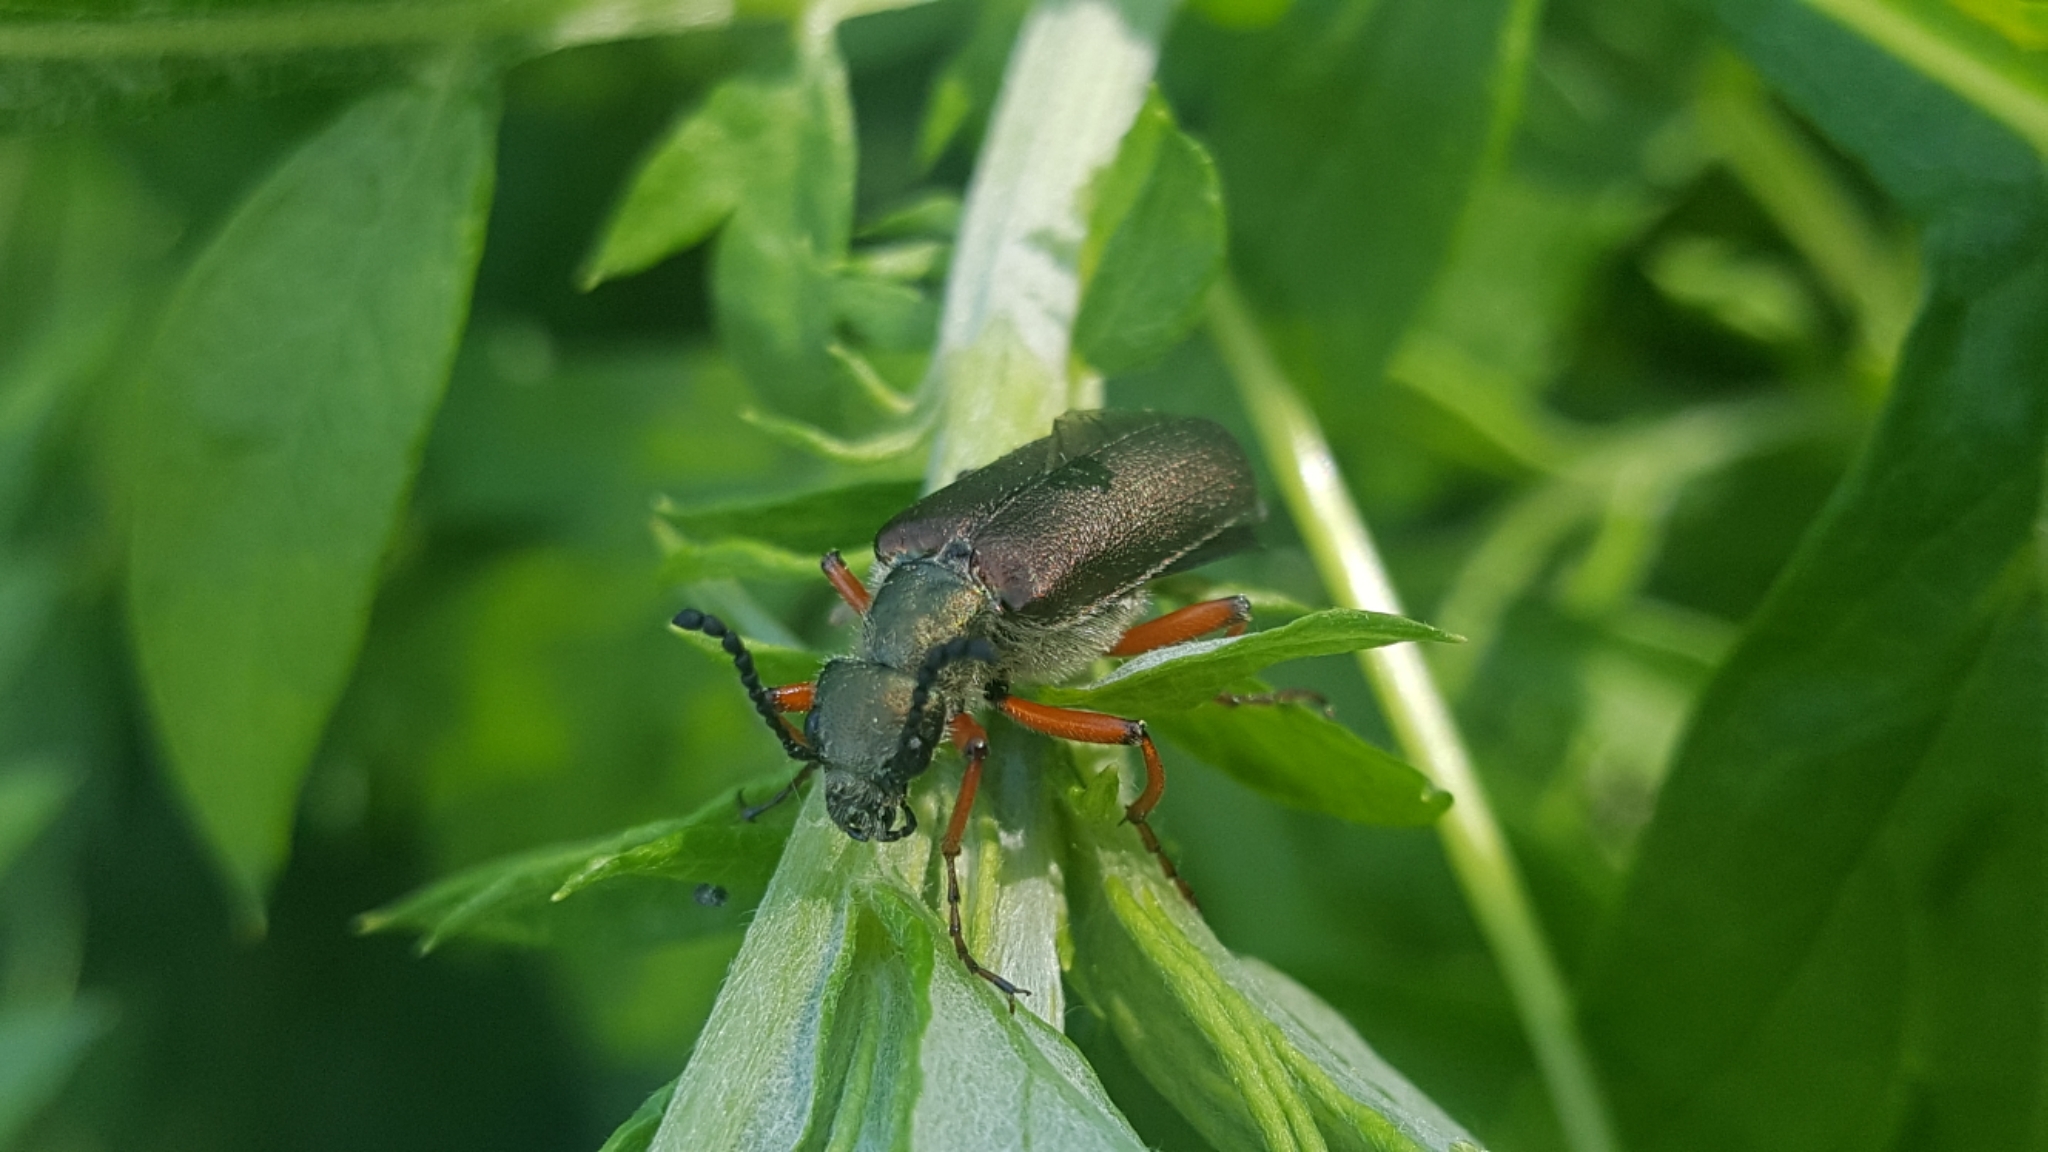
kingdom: Animalia
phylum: Arthropoda
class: Insecta
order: Coleoptera
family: Meloidae
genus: Lytta
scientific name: Lytta aenea
